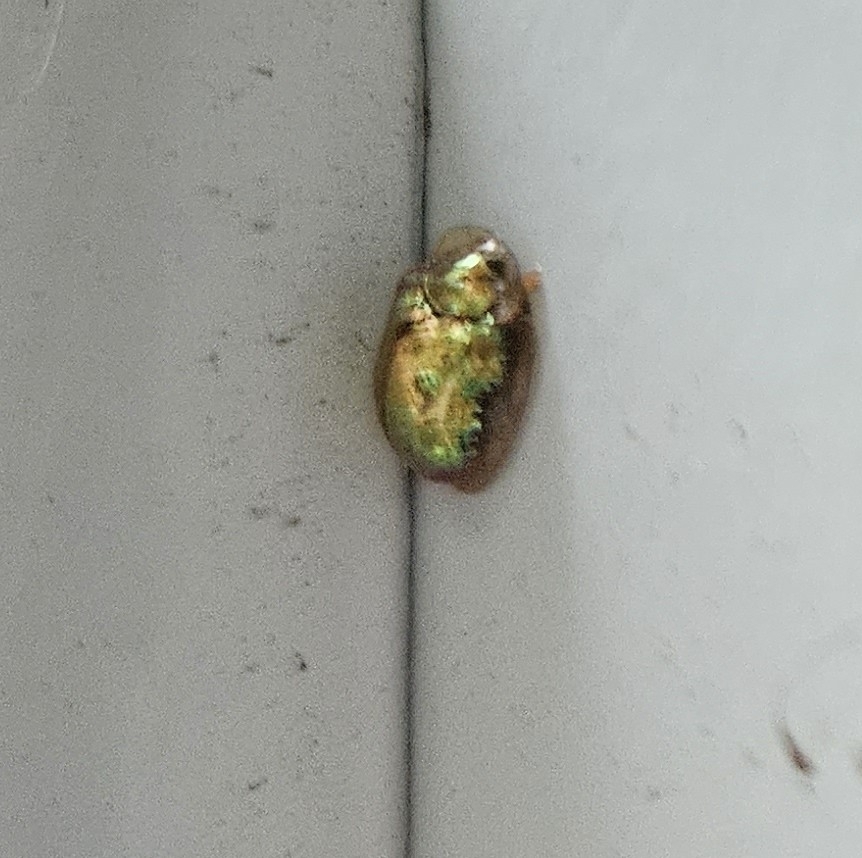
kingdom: Animalia
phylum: Arthropoda
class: Insecta
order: Coleoptera
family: Chrysomelidae
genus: Charidotella
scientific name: Charidotella sexpunctata
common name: Golden tortoise beetle
